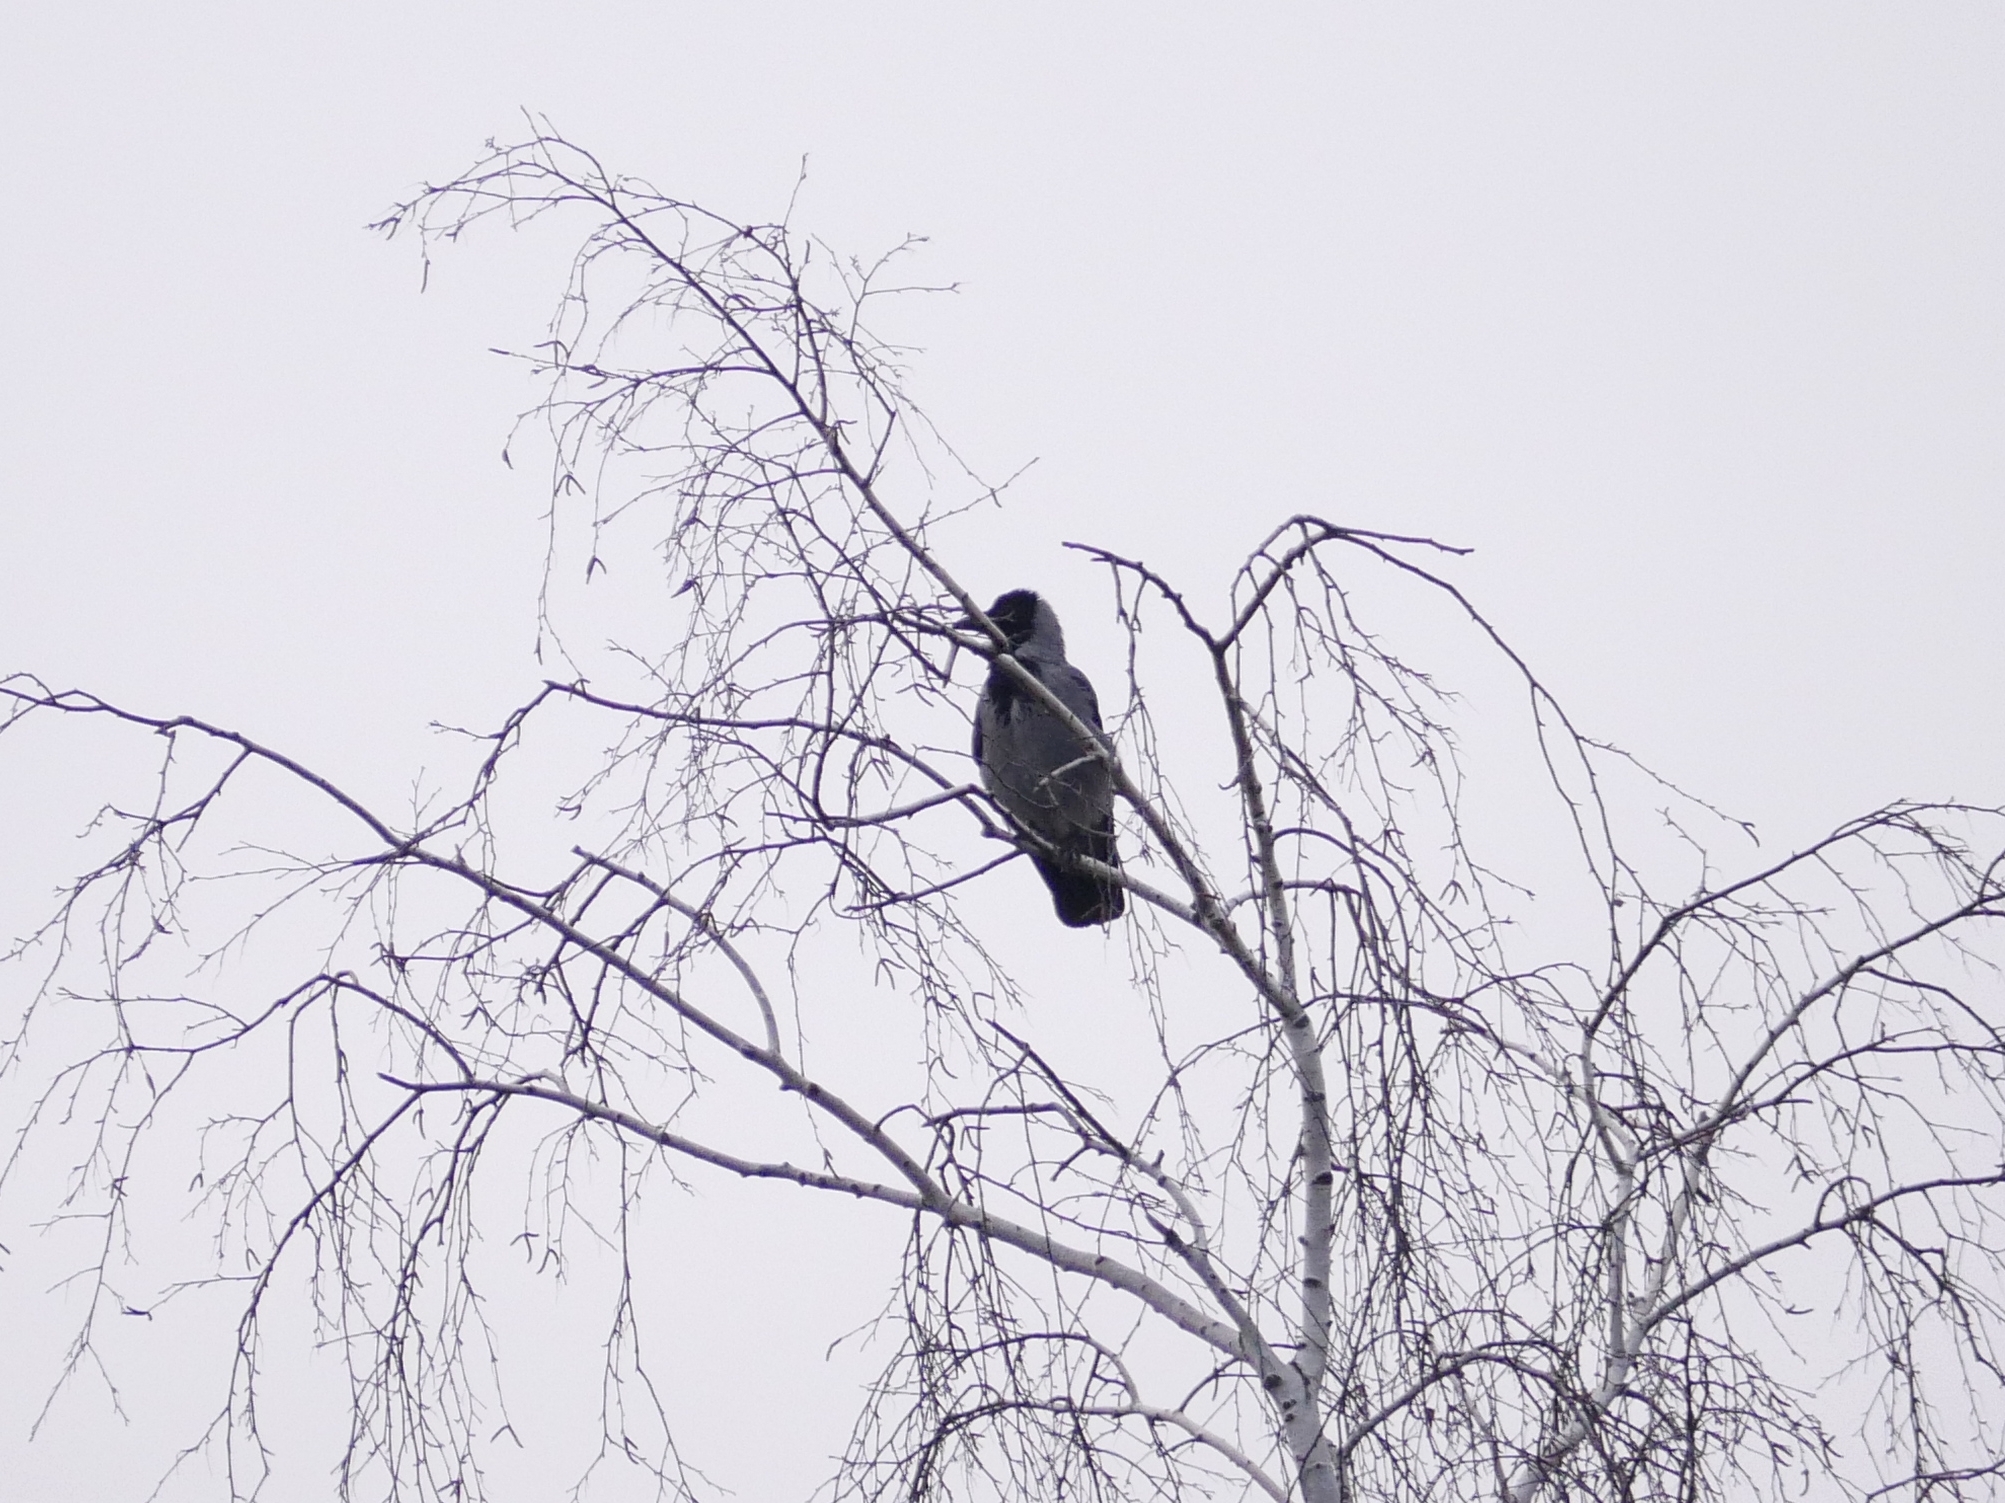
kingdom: Animalia
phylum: Chordata
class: Aves
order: Passeriformes
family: Corvidae
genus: Corvus
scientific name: Corvus cornix
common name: Hooded crow
